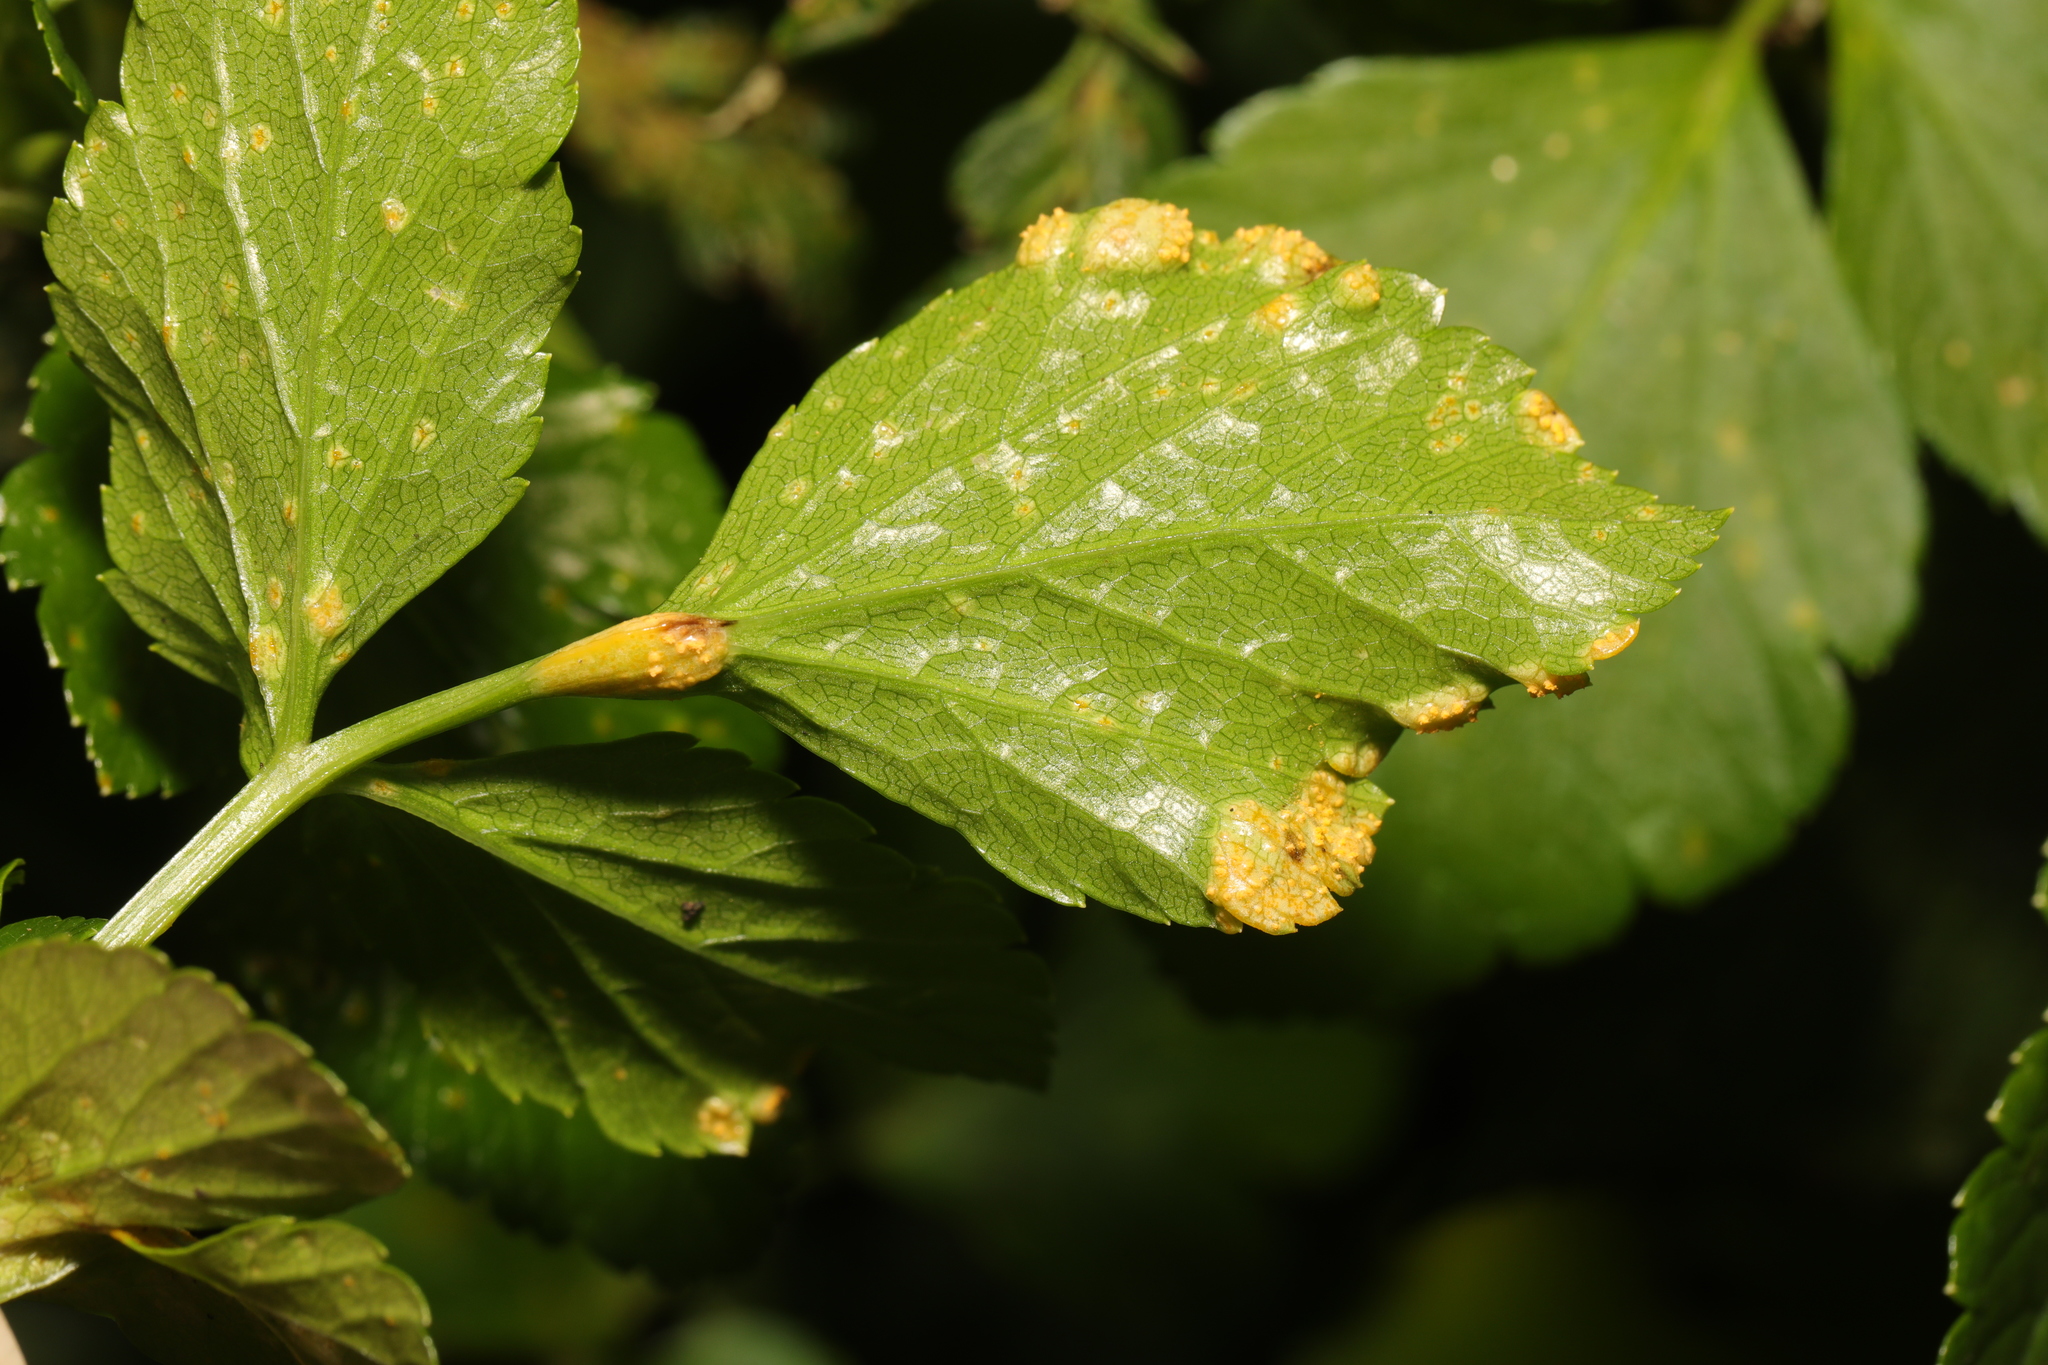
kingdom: Fungi
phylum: Basidiomycota
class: Pucciniomycetes
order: Pucciniales
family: Pucciniaceae
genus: Puccinia
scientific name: Puccinia smyrnii
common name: Alexanders rust
